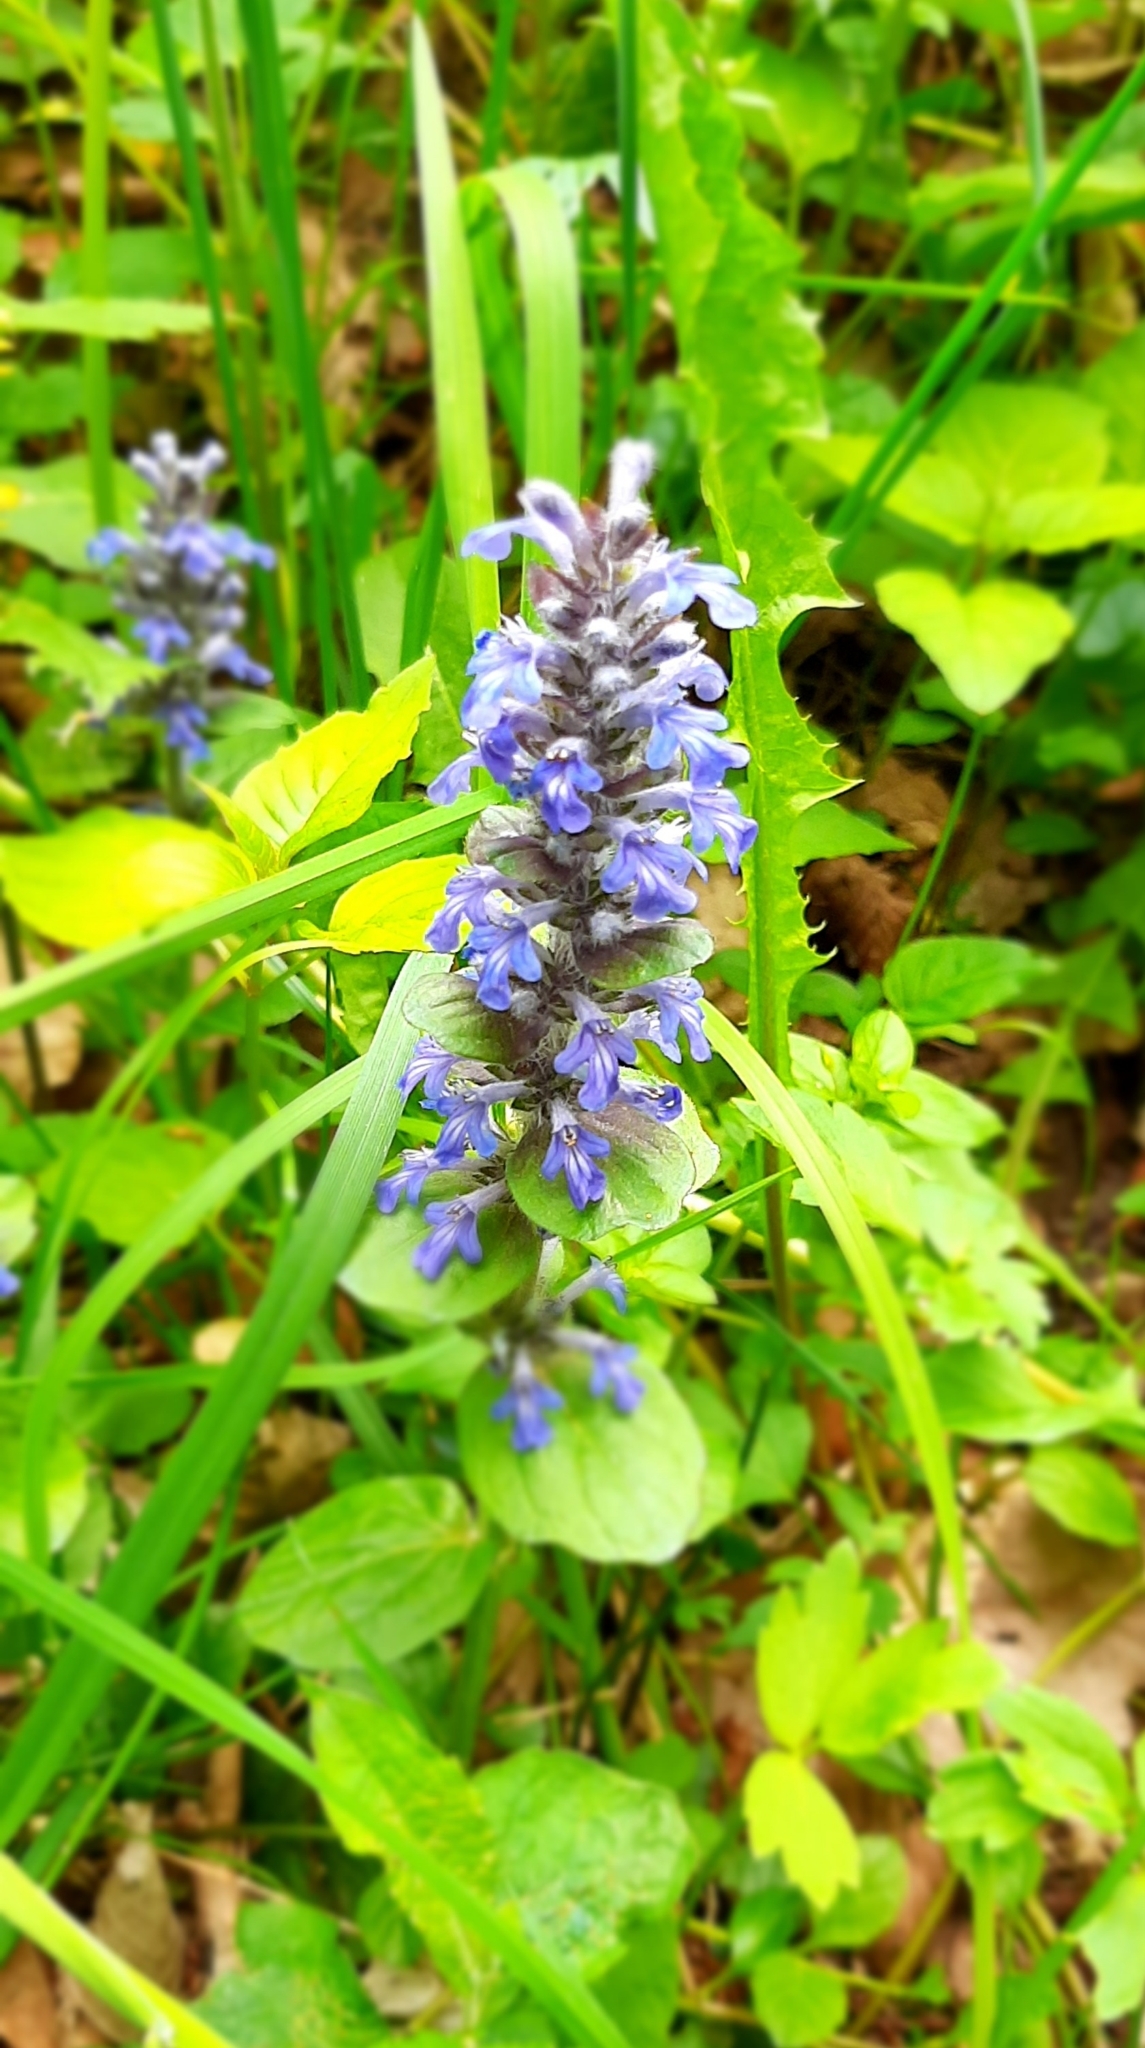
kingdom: Plantae
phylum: Tracheophyta
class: Magnoliopsida
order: Lamiales
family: Lamiaceae
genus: Ajuga
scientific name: Ajuga reptans
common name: Bugle
